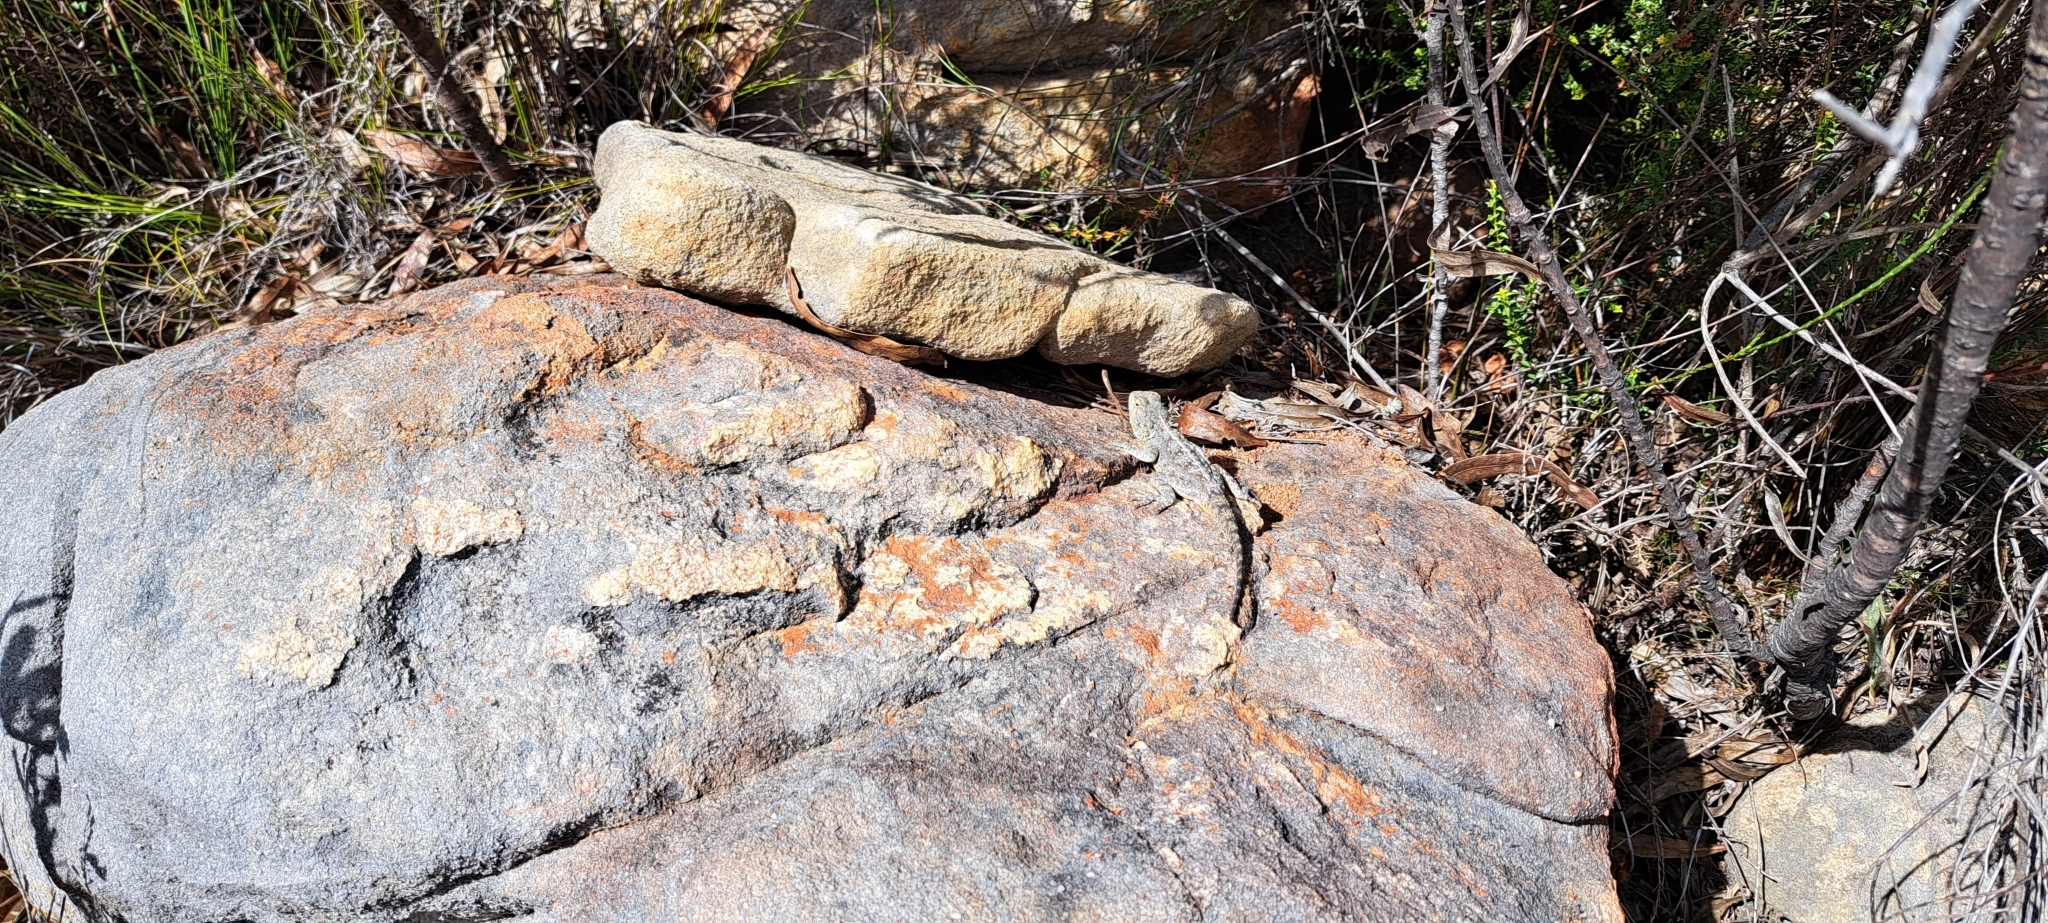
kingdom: Animalia
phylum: Chordata
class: Squamata
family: Agamidae
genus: Agama
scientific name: Agama atra
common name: Southern african rock agama
